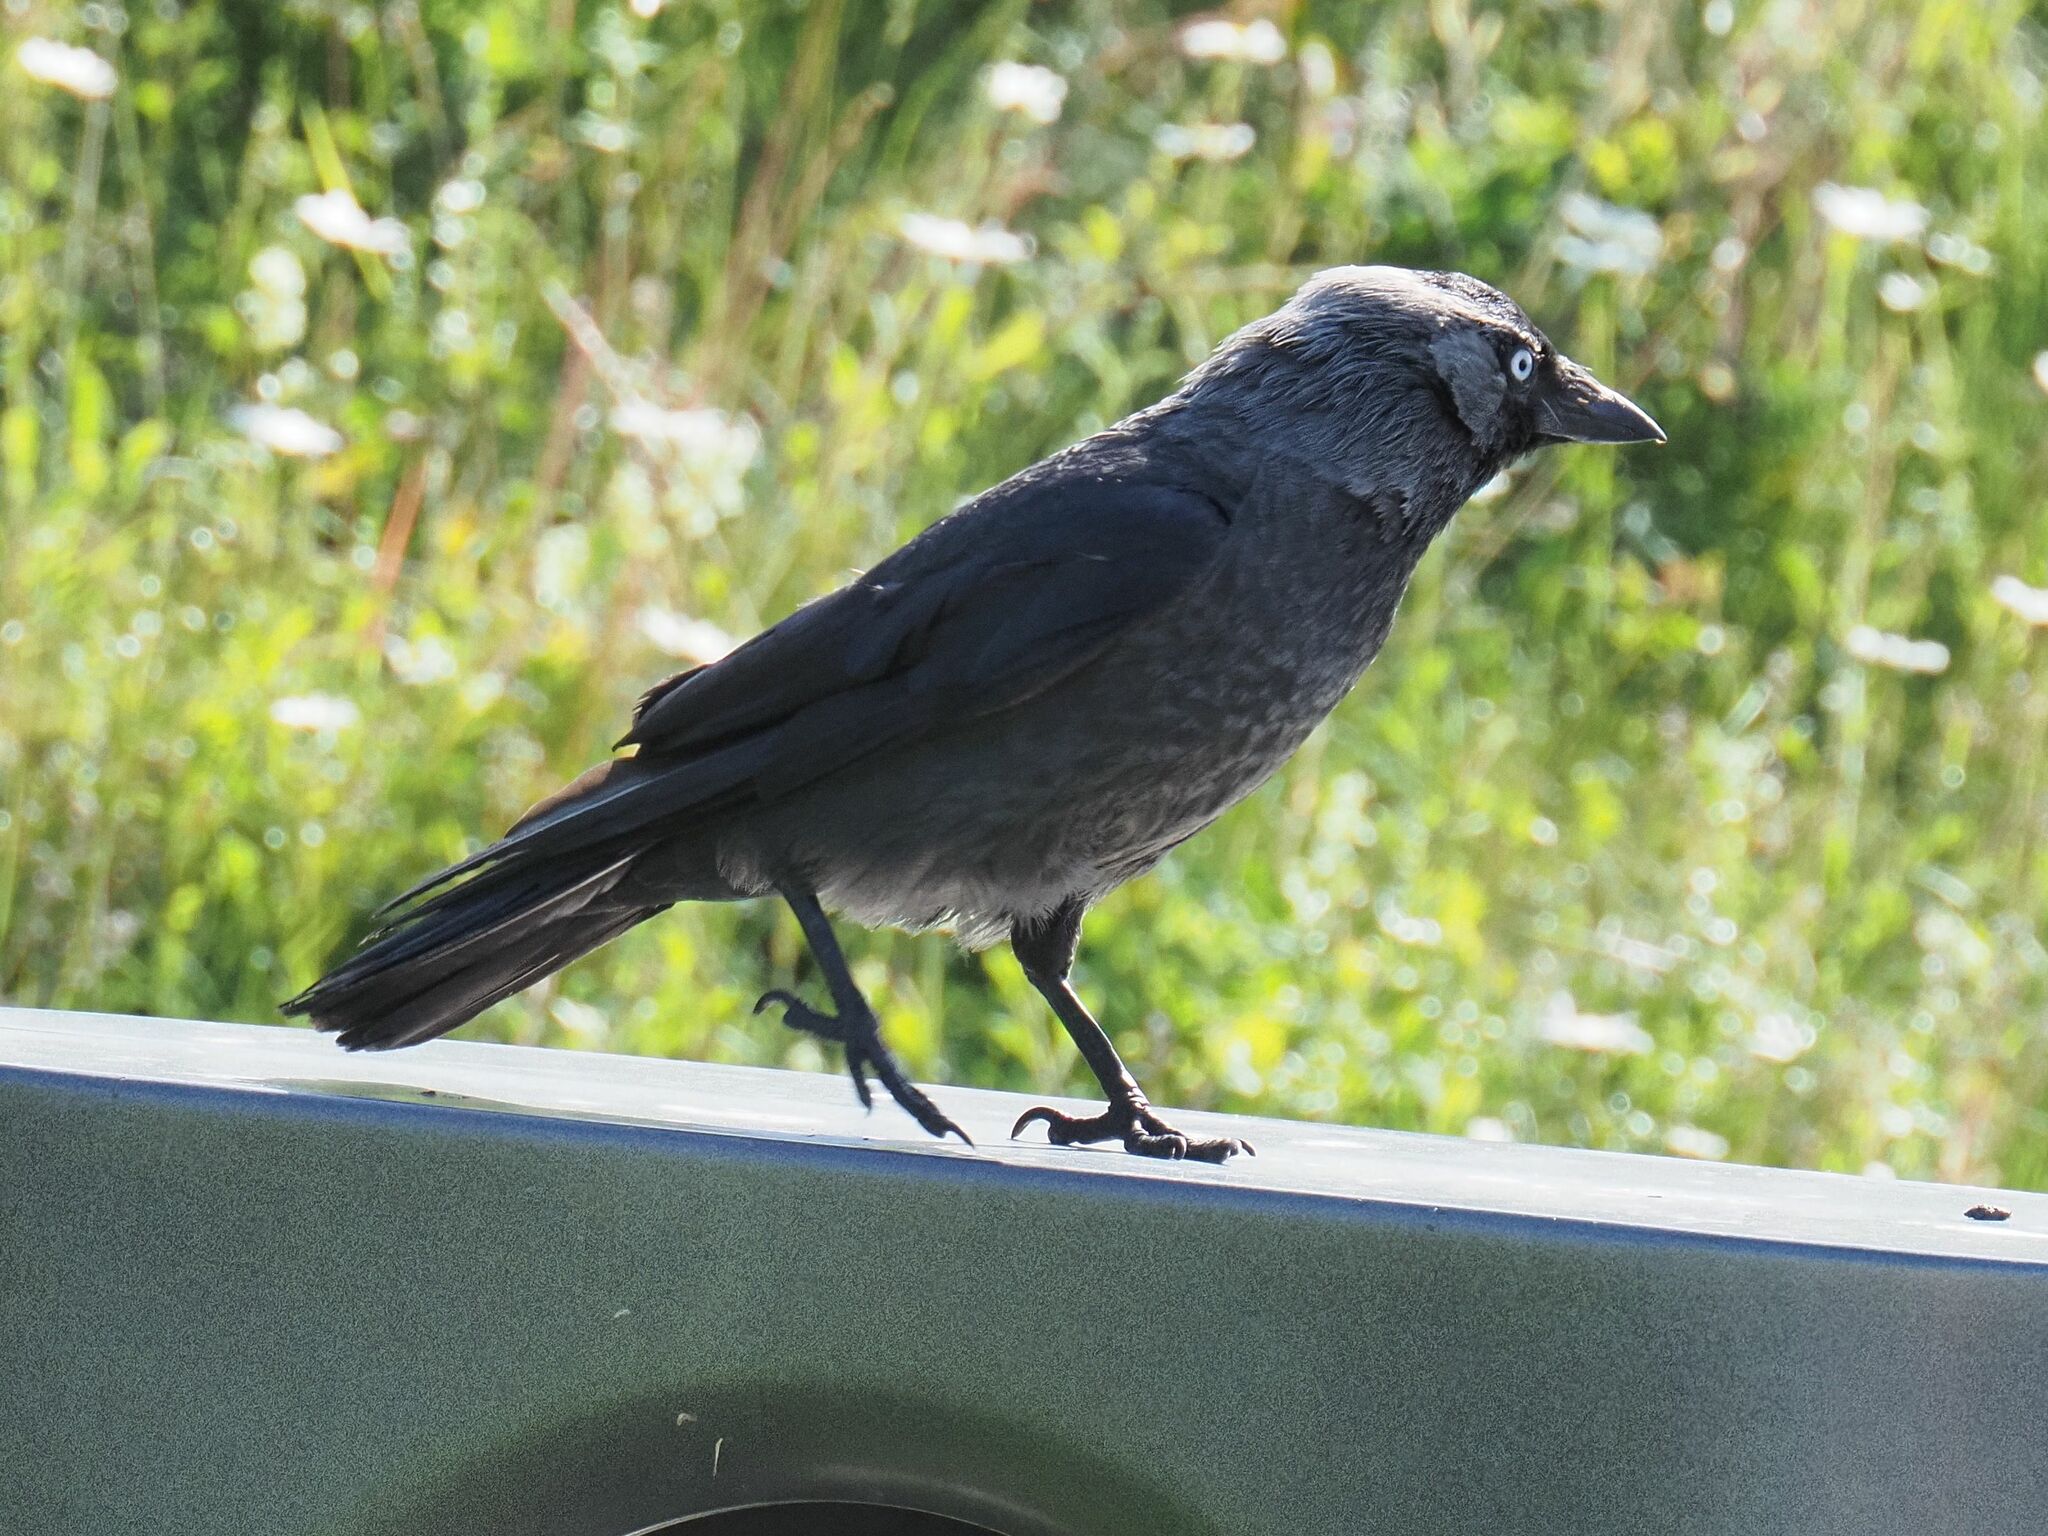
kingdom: Animalia
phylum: Chordata
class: Aves
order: Passeriformes
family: Corvidae
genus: Coloeus
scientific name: Coloeus monedula
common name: Western jackdaw
